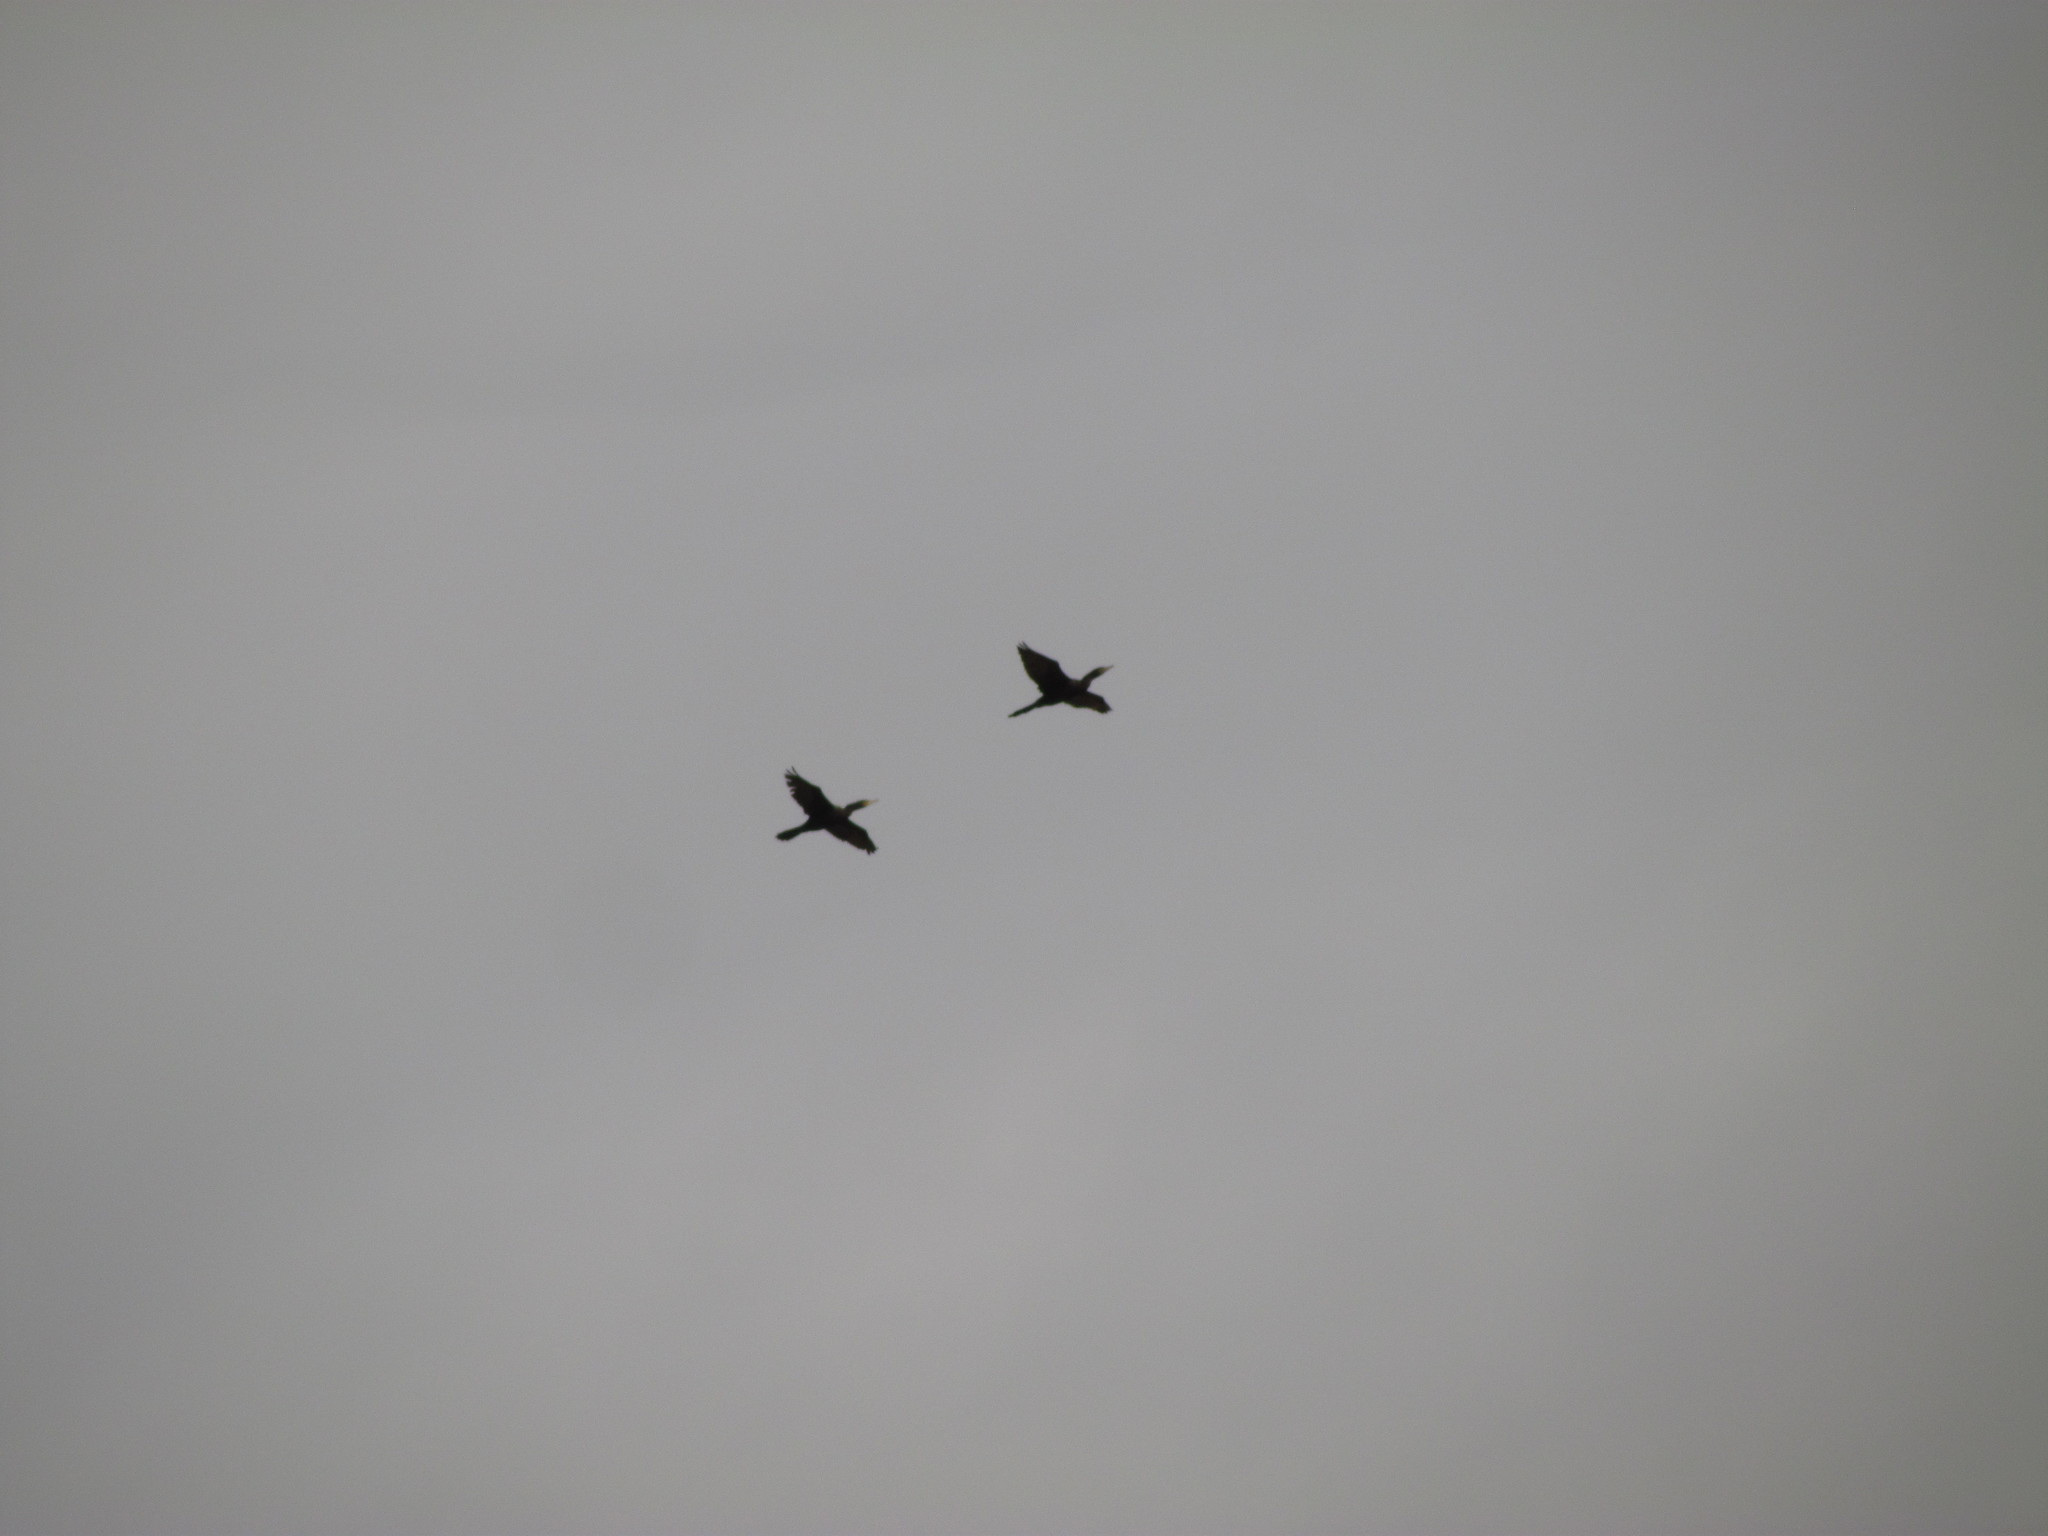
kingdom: Animalia
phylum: Chordata
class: Aves
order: Suliformes
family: Phalacrocoracidae
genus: Phalacrocorax
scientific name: Phalacrocorax brasilianus
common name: Neotropic cormorant
